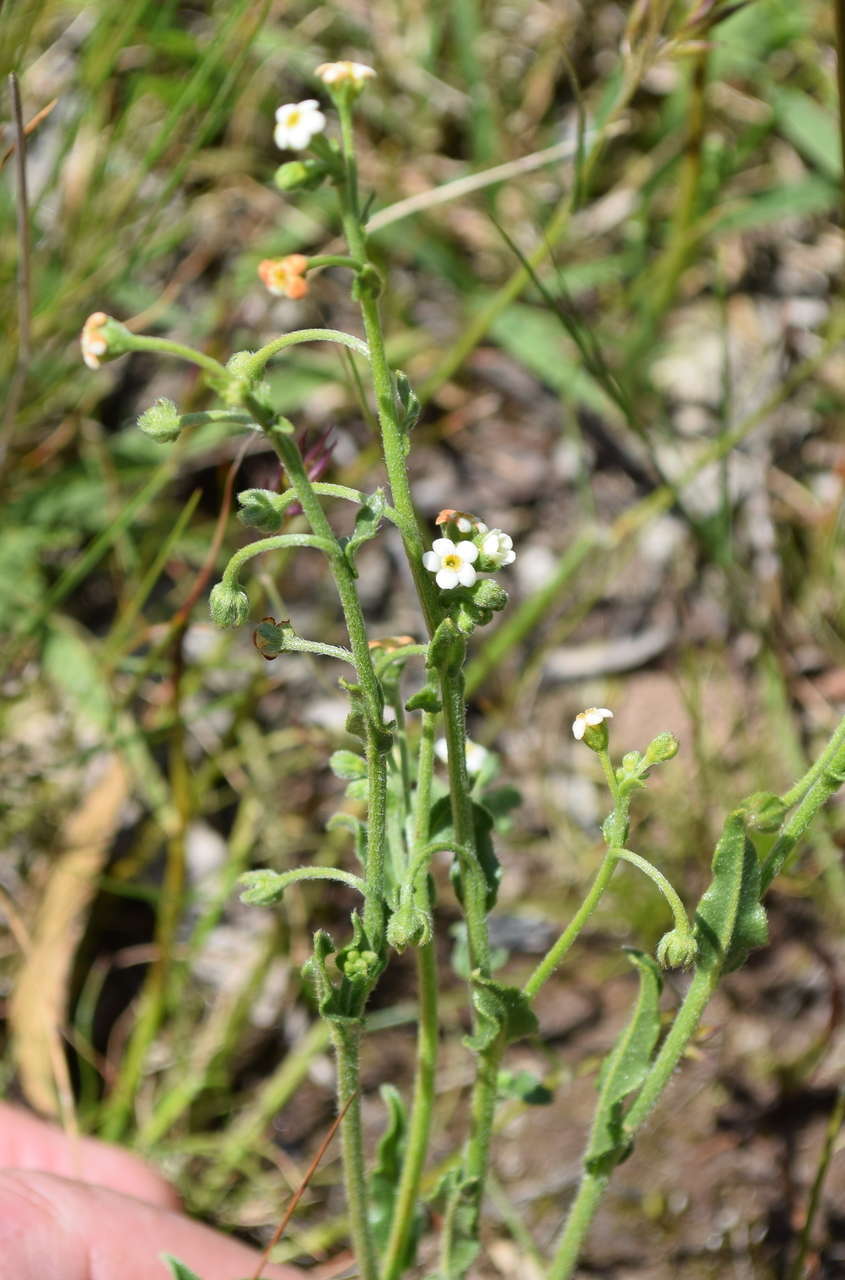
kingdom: Plantae
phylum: Tracheophyta
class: Magnoliopsida
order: Boraginales
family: Boraginaceae
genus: Hackelia
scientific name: Hackelia suaveolens
